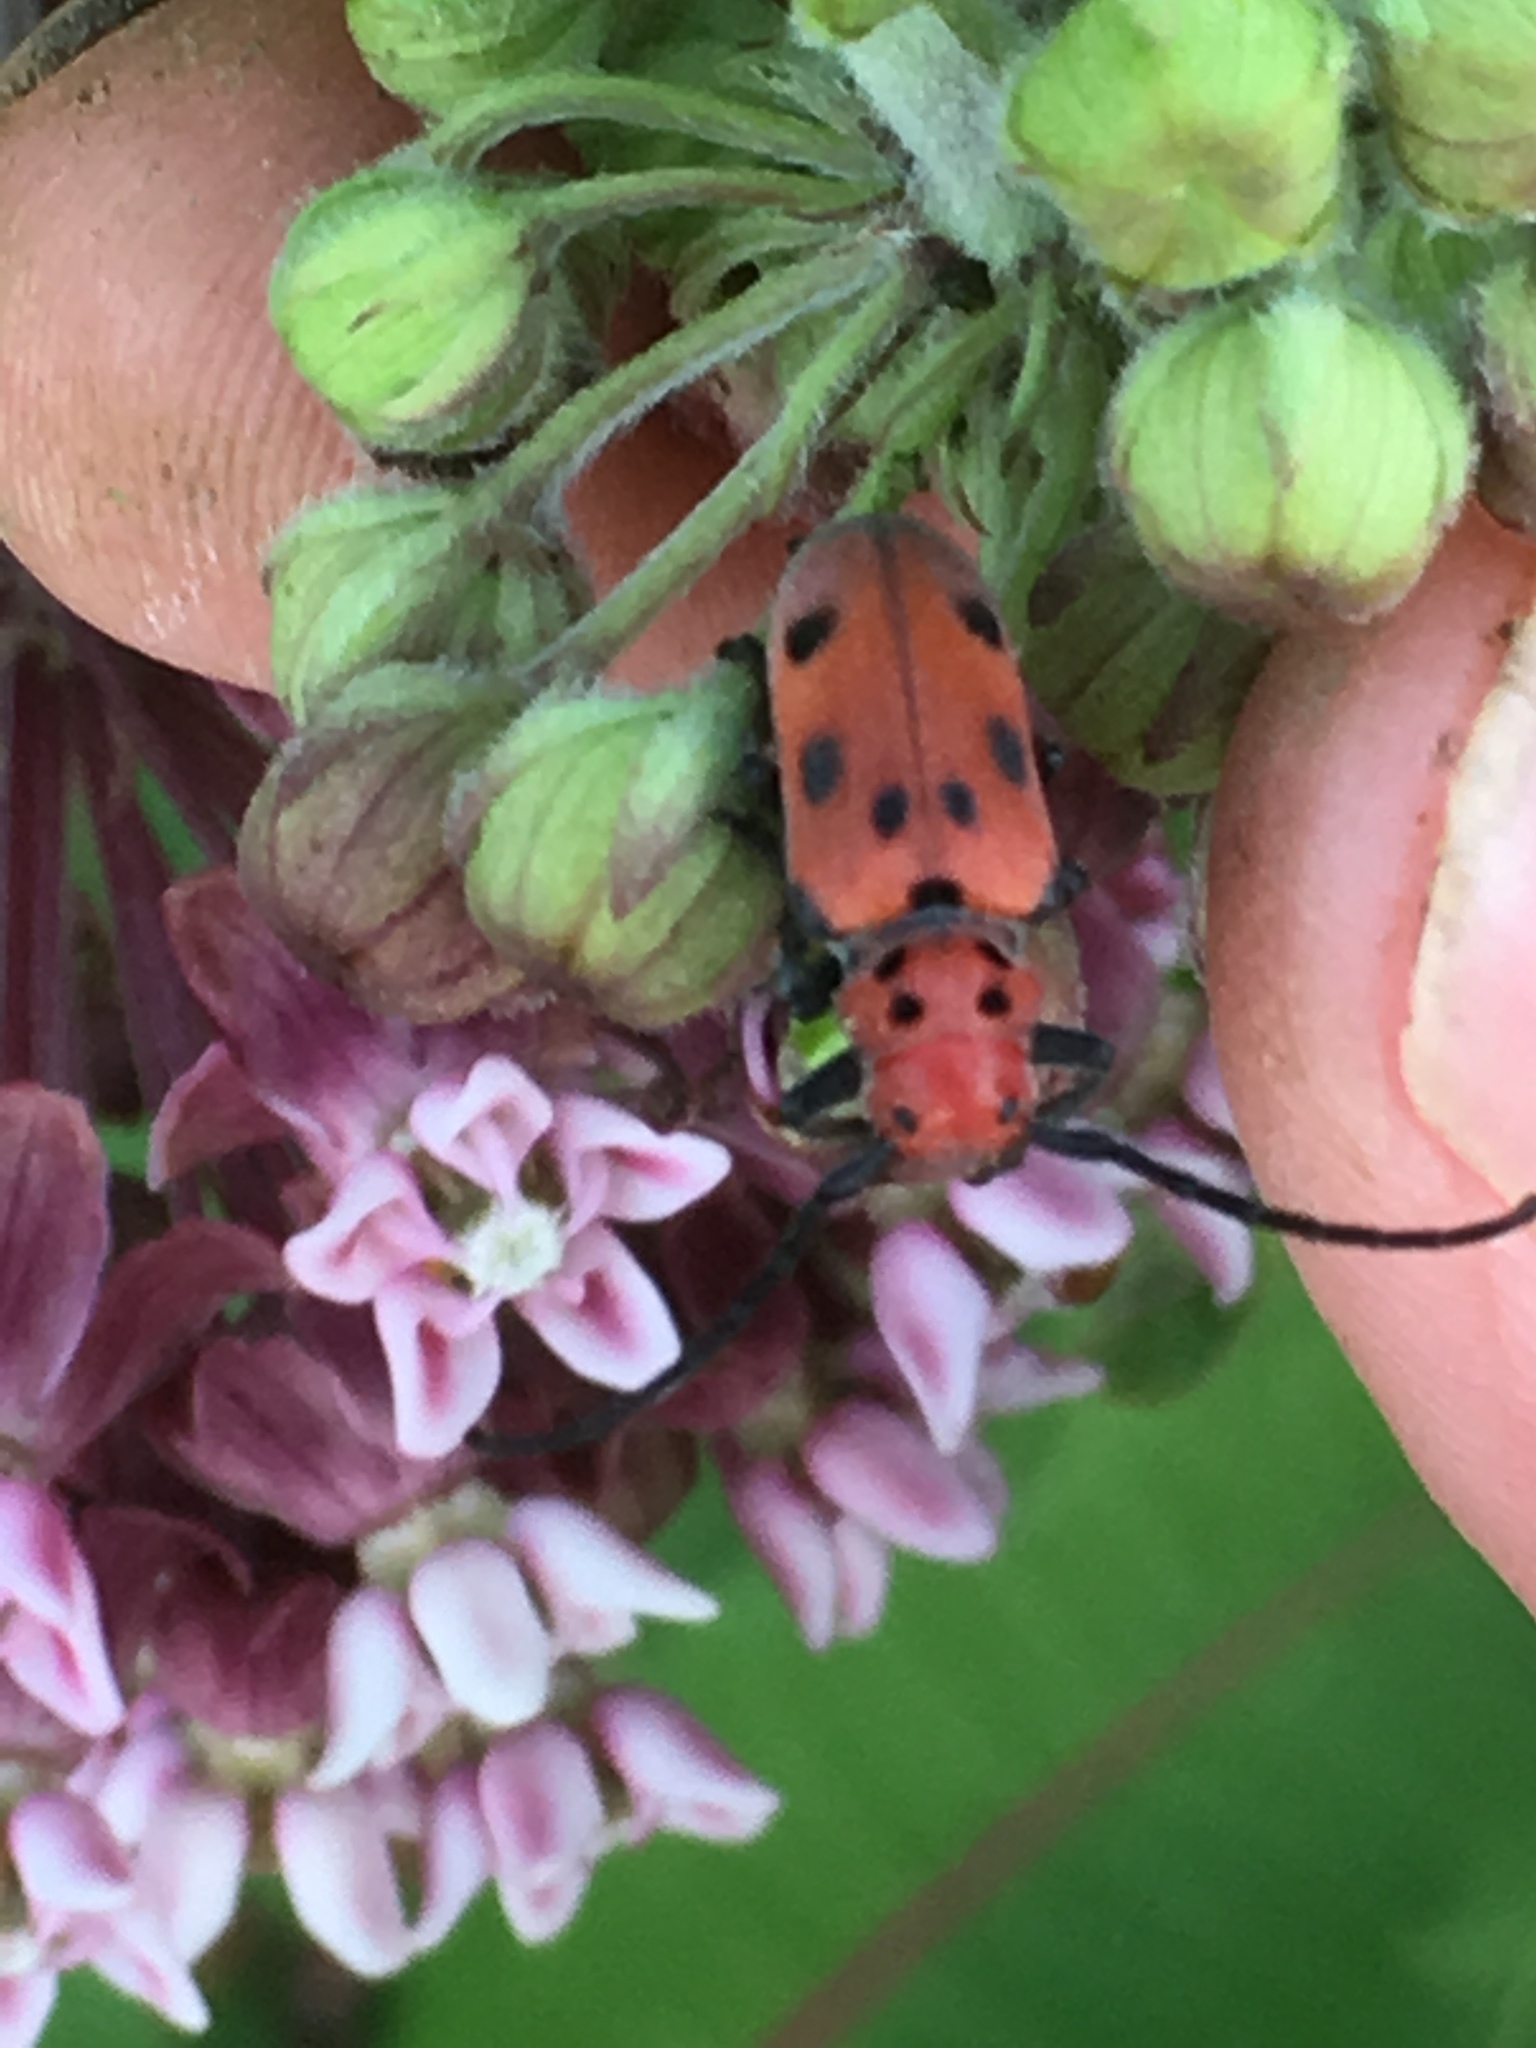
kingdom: Animalia
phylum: Arthropoda
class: Insecta
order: Coleoptera
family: Cerambycidae
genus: Tetraopes
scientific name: Tetraopes tetrophthalmus
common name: Red milkweed beetle
